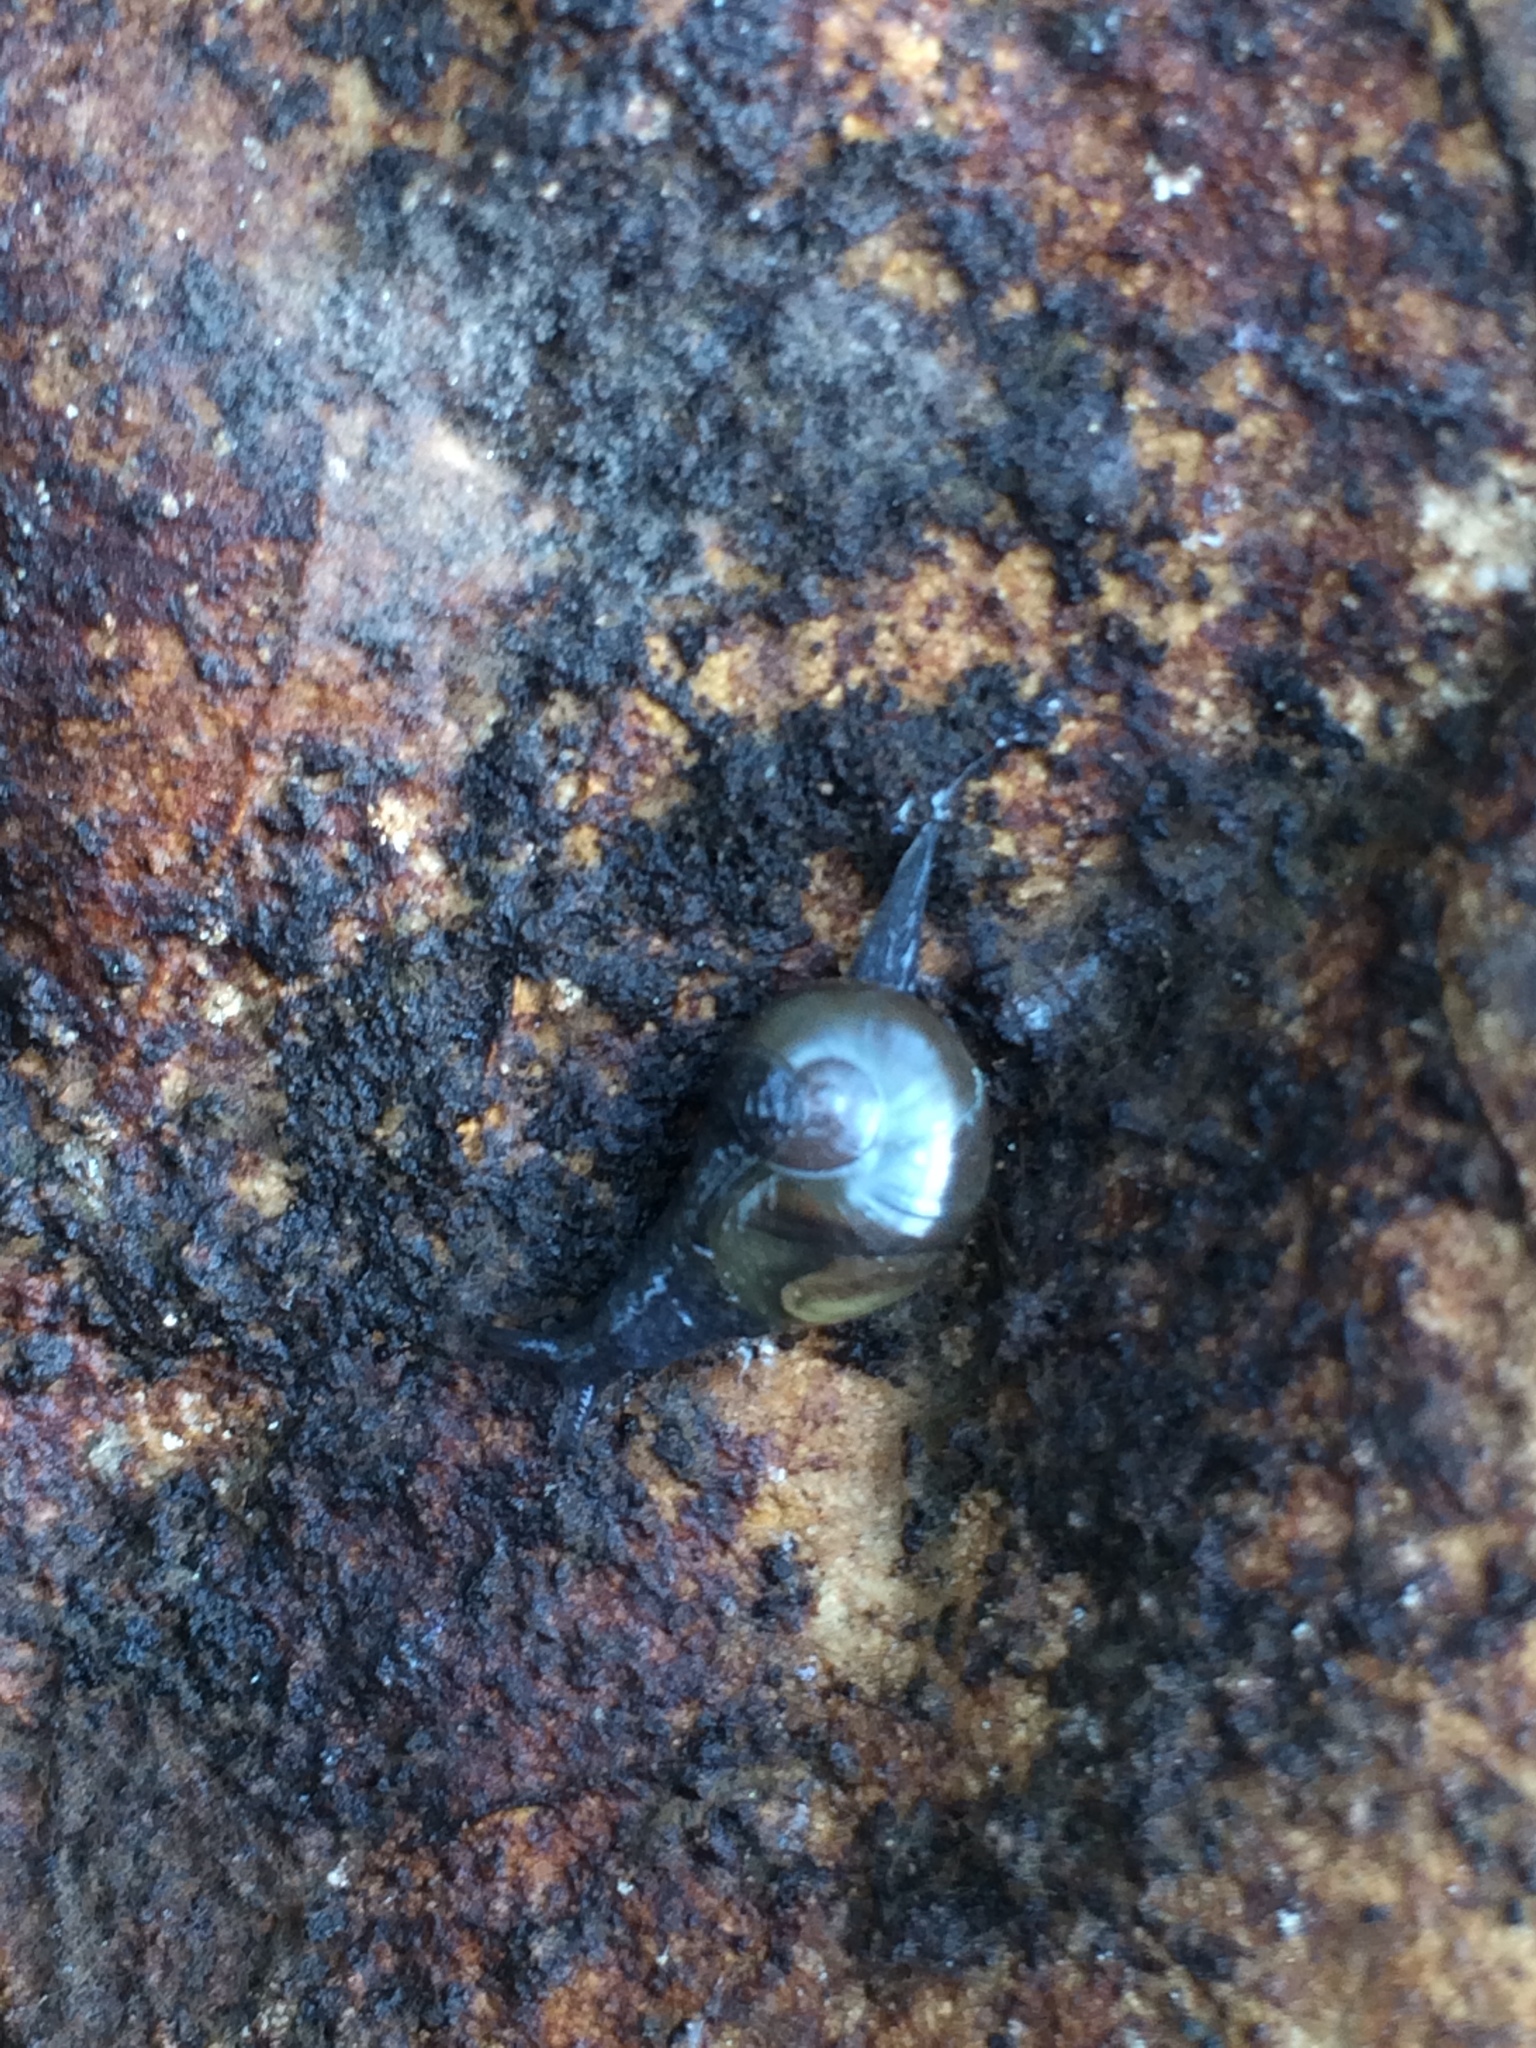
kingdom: Animalia
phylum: Mollusca
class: Gastropoda
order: Stylommatophora
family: Vitrinidae
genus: Vitrina
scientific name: Vitrina pellucida
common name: Pellucid glass snail
